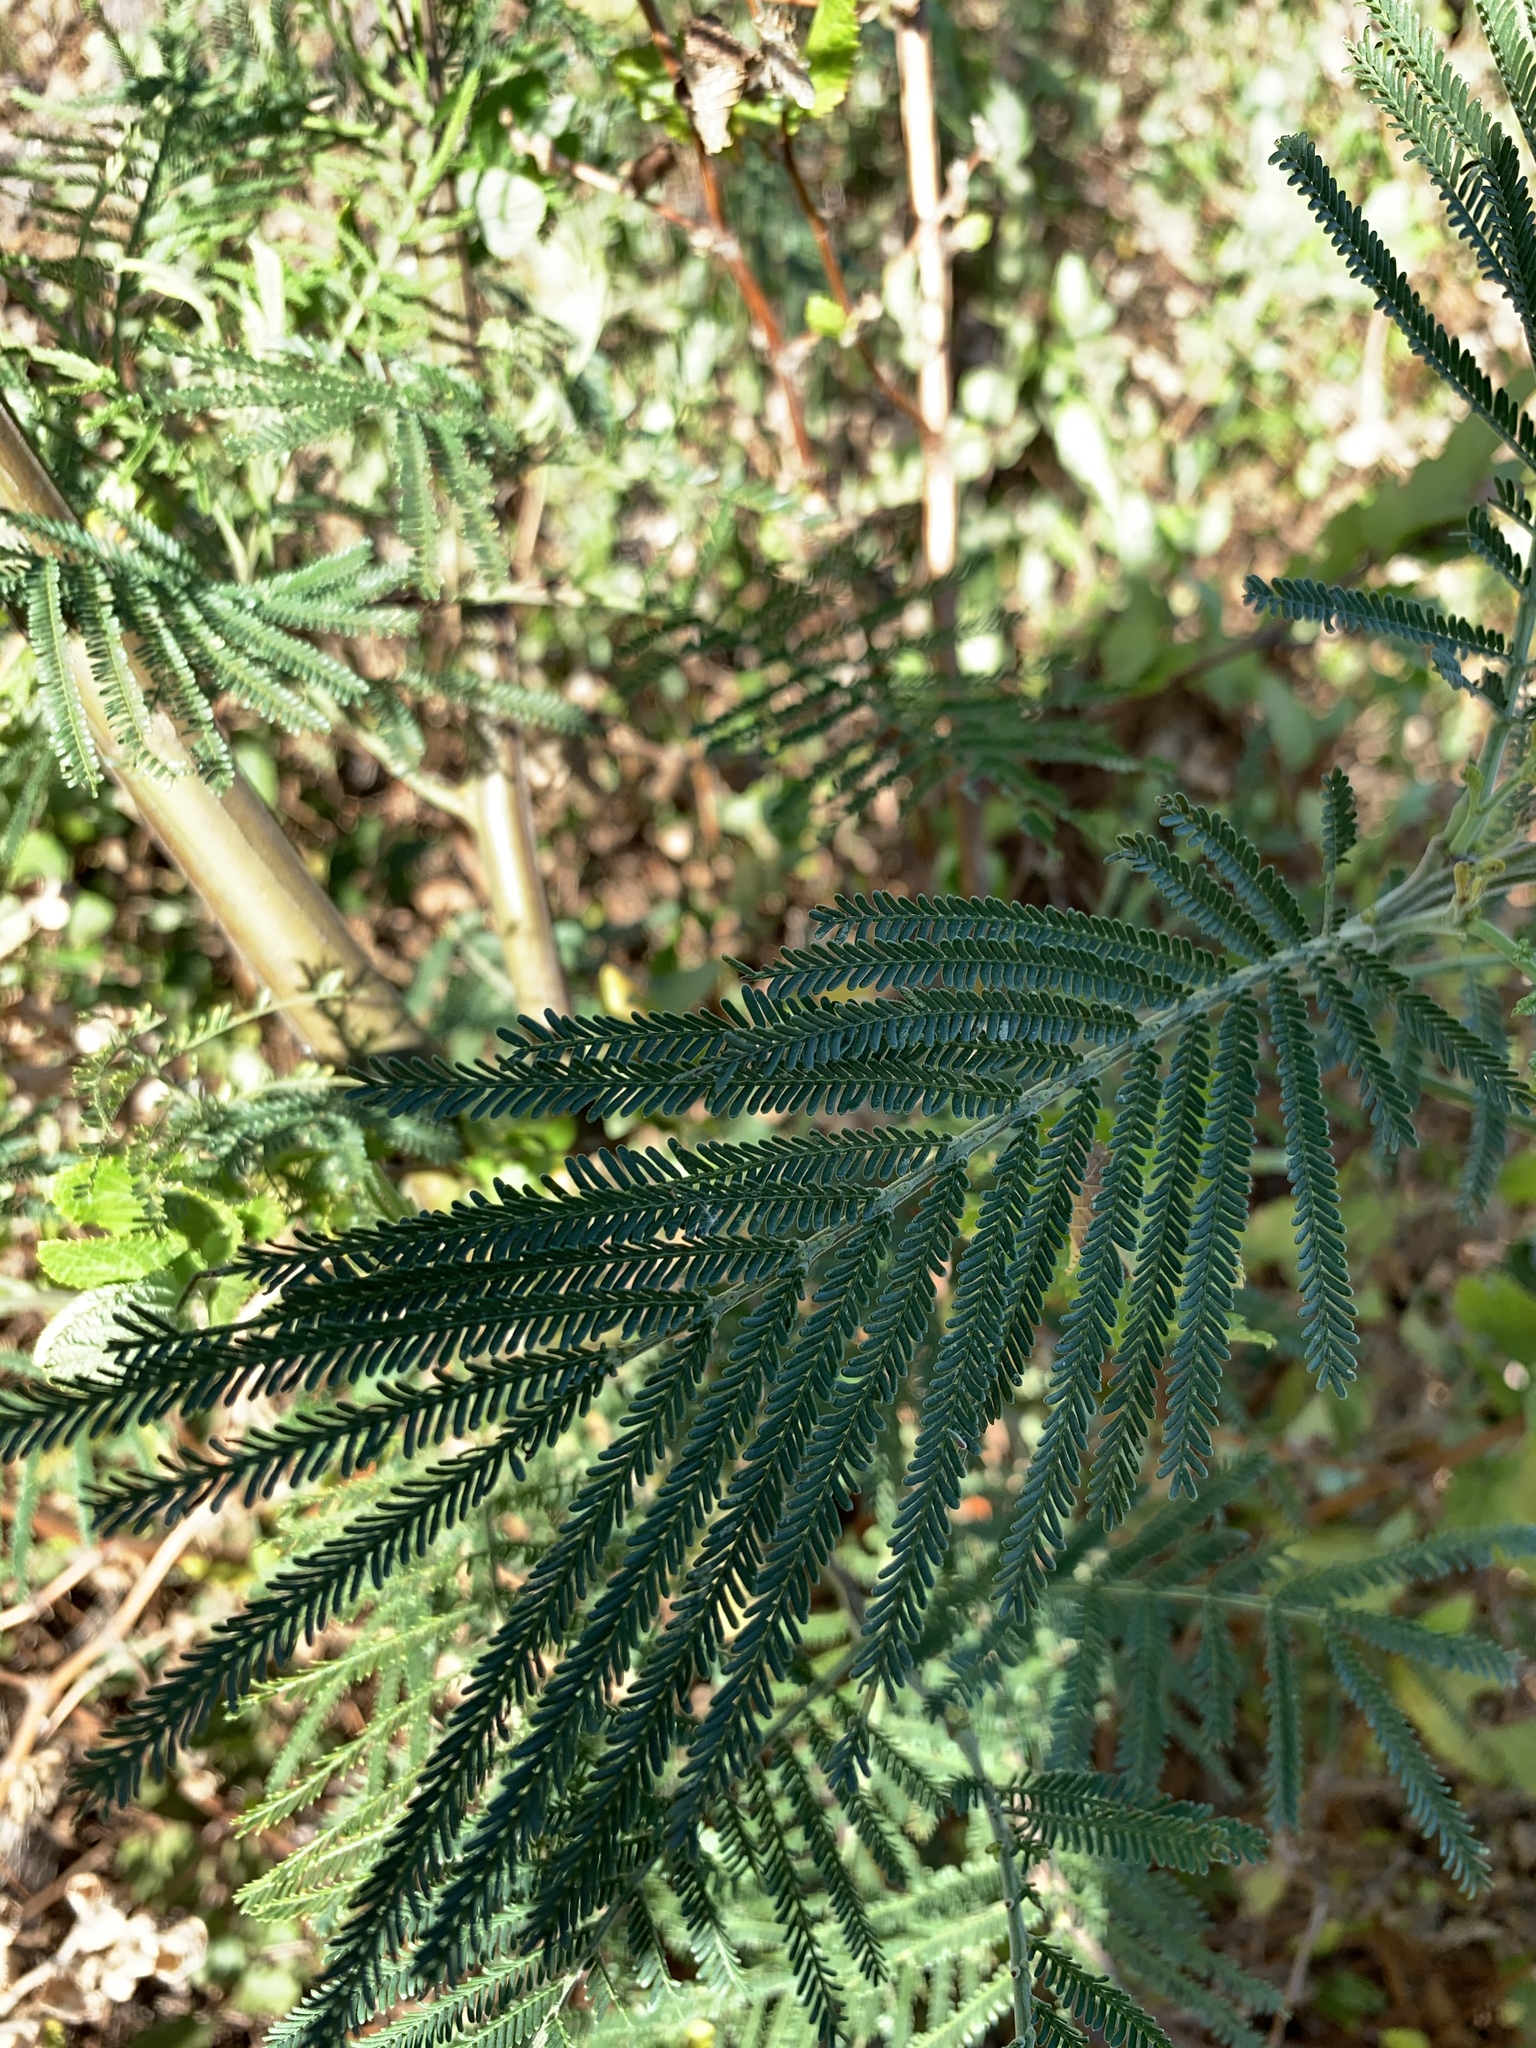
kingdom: Plantae
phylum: Tracheophyta
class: Magnoliopsida
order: Fabales
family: Fabaceae
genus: Acacia
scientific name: Acacia mearnsii
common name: Black wattle
